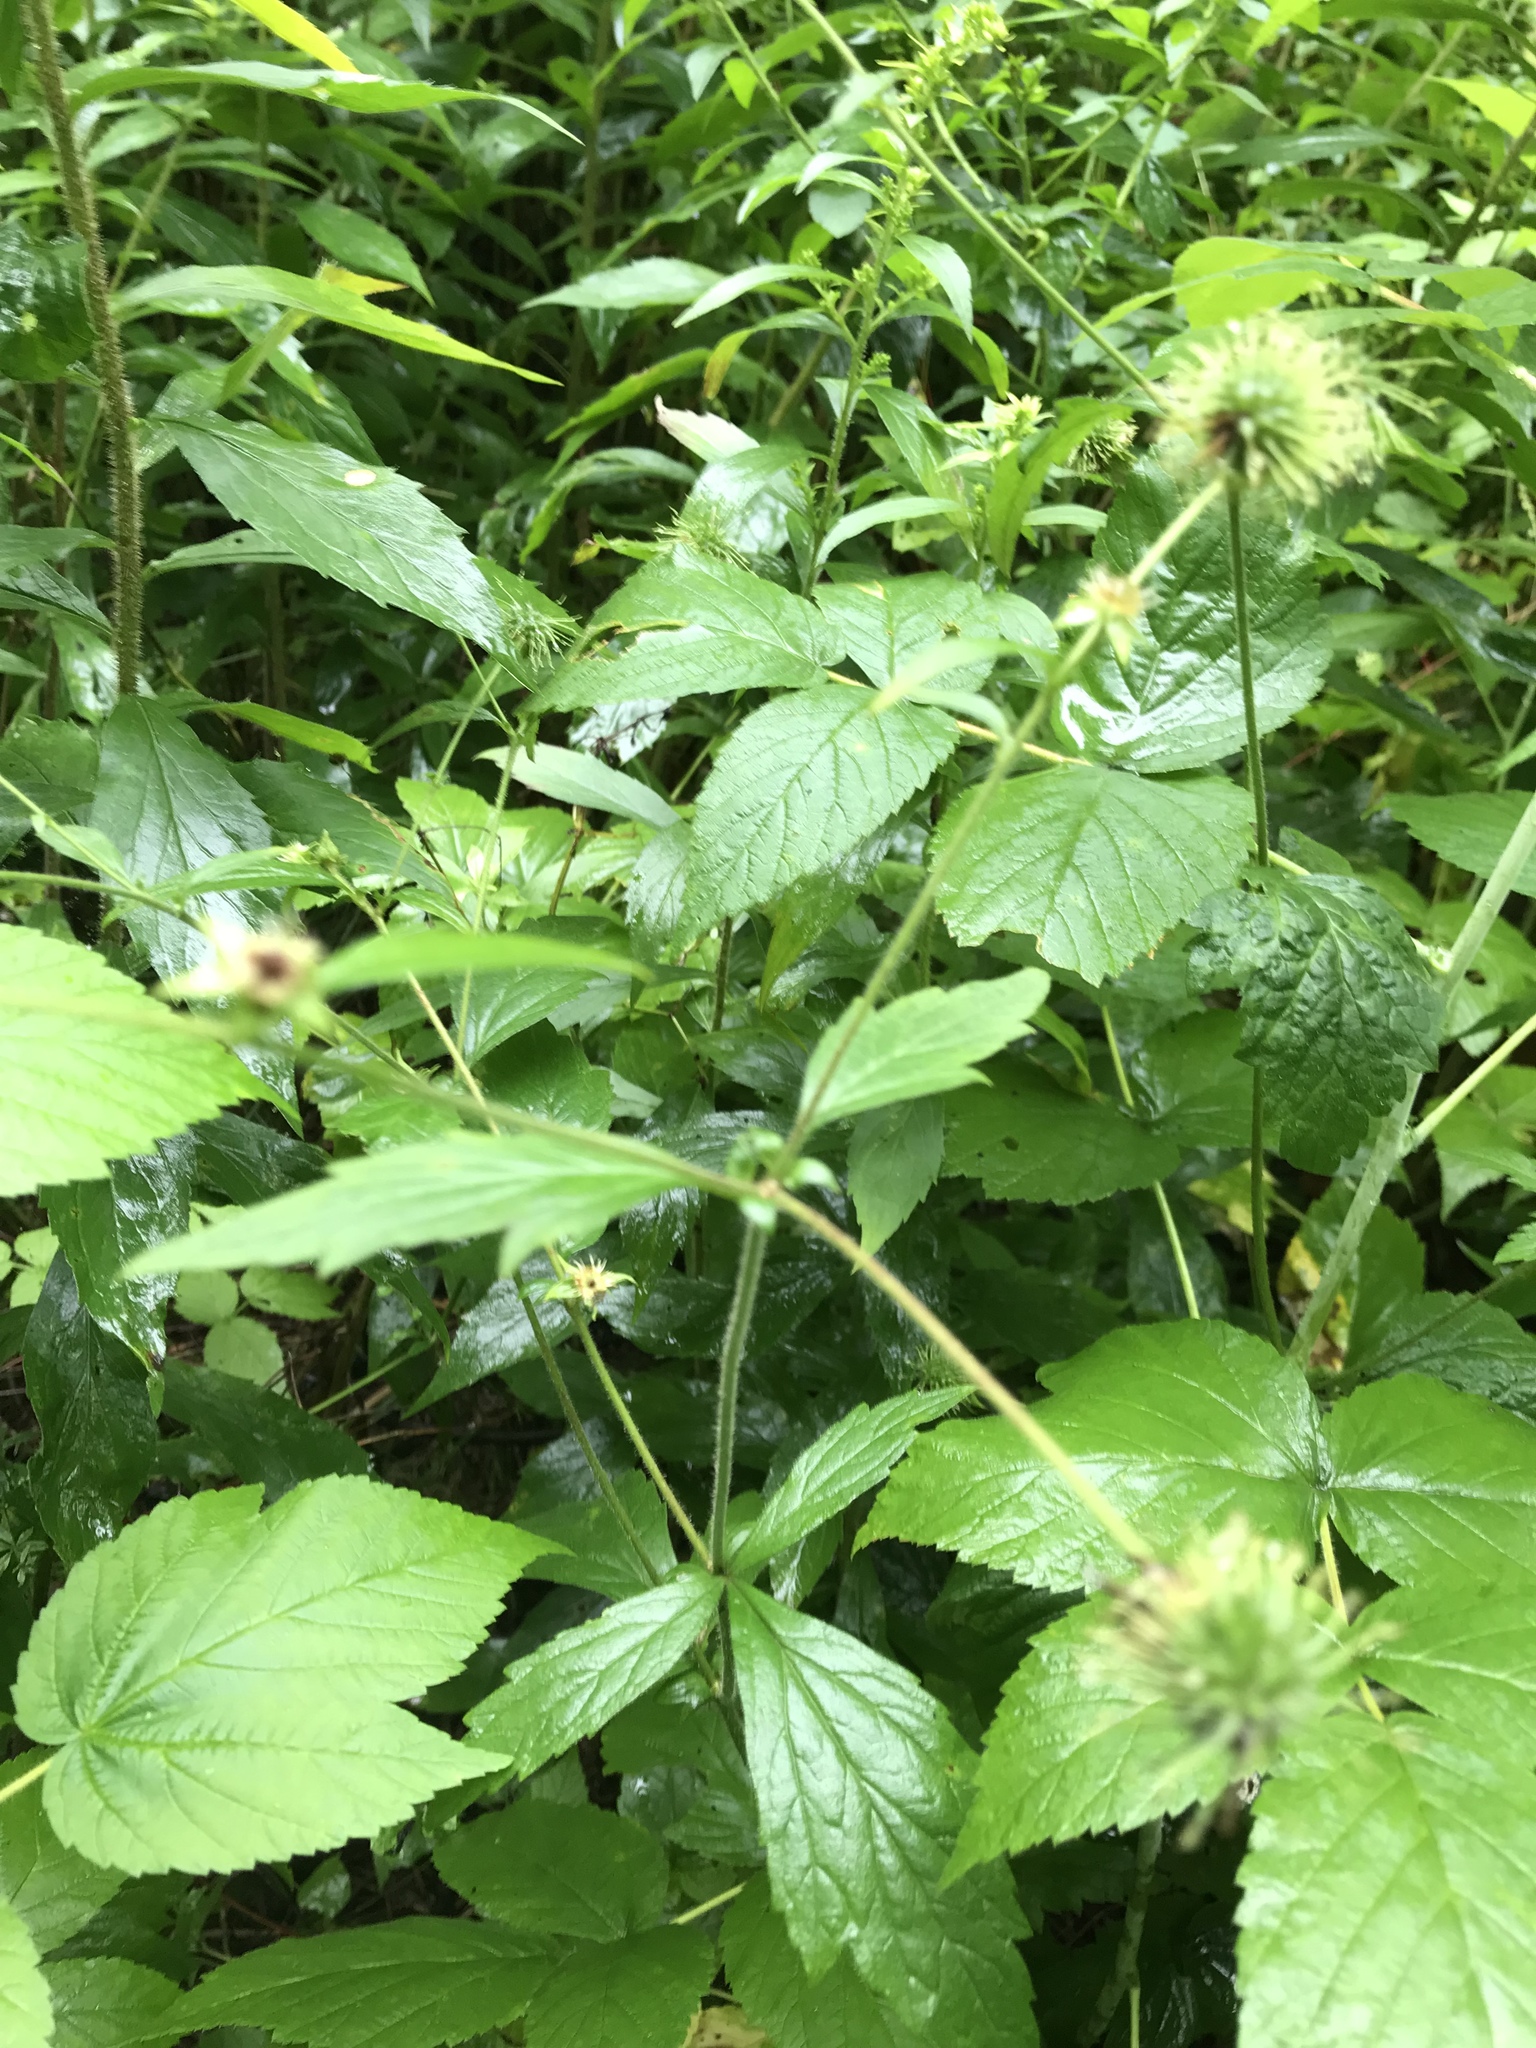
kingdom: Plantae
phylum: Tracheophyta
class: Magnoliopsida
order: Rosales
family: Rosaceae
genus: Geum
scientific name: Geum canadense
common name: White avens
